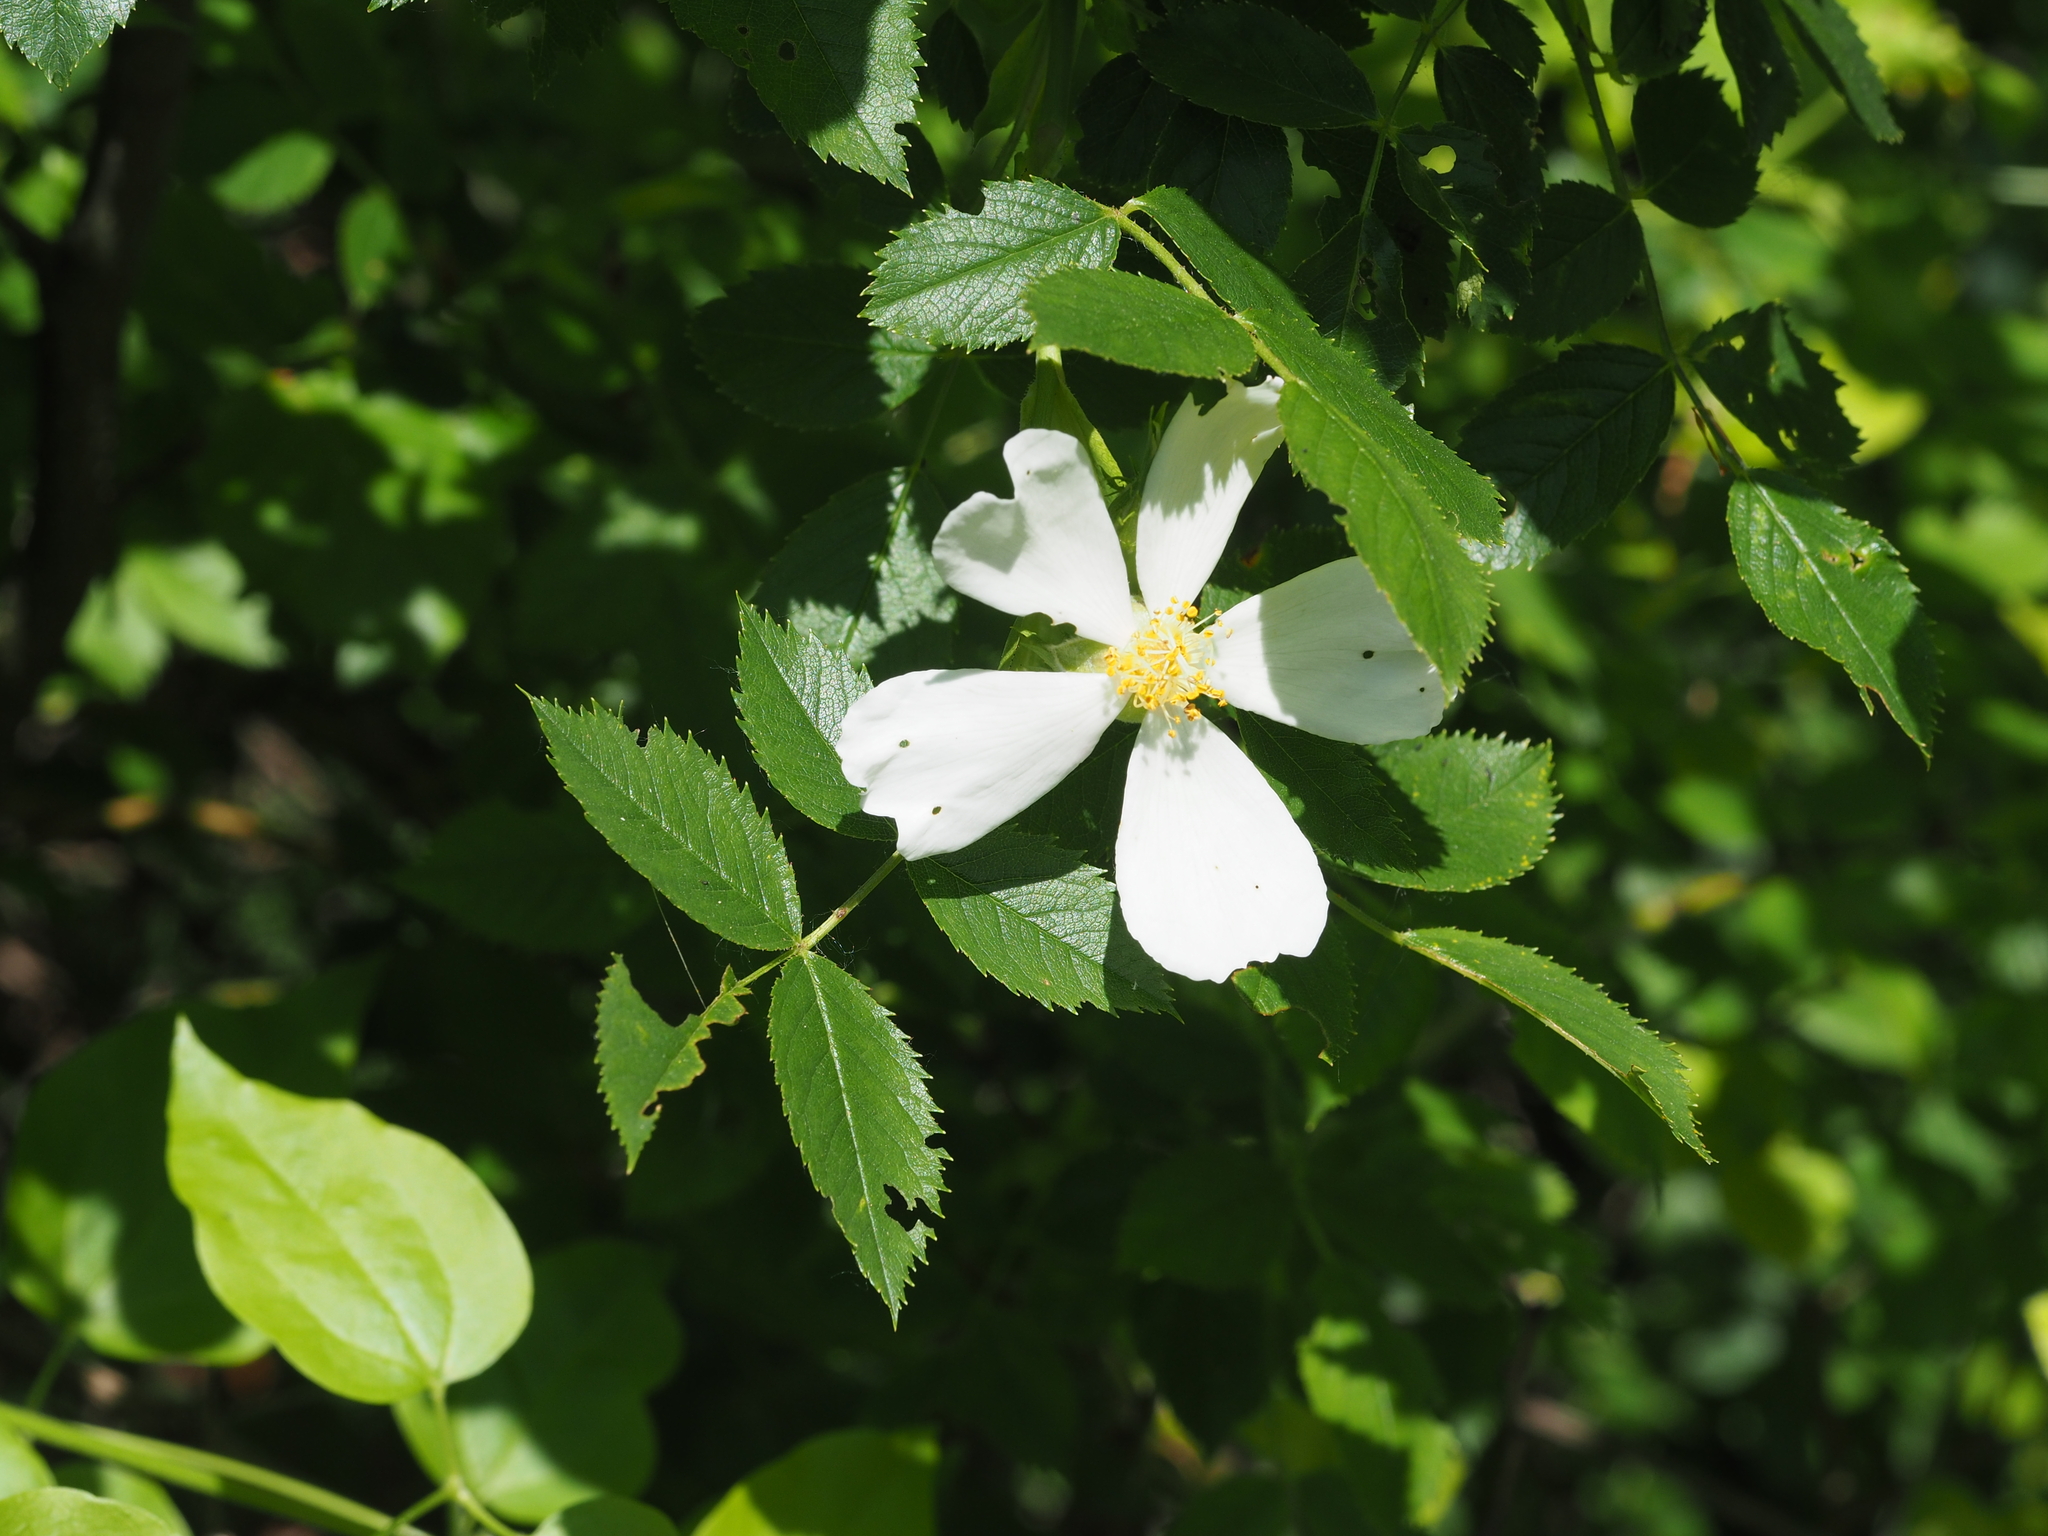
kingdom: Plantae
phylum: Tracheophyta
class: Magnoliopsida
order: Rosales
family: Rosaceae
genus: Rosa
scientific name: Rosa canina
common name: Dog rose
